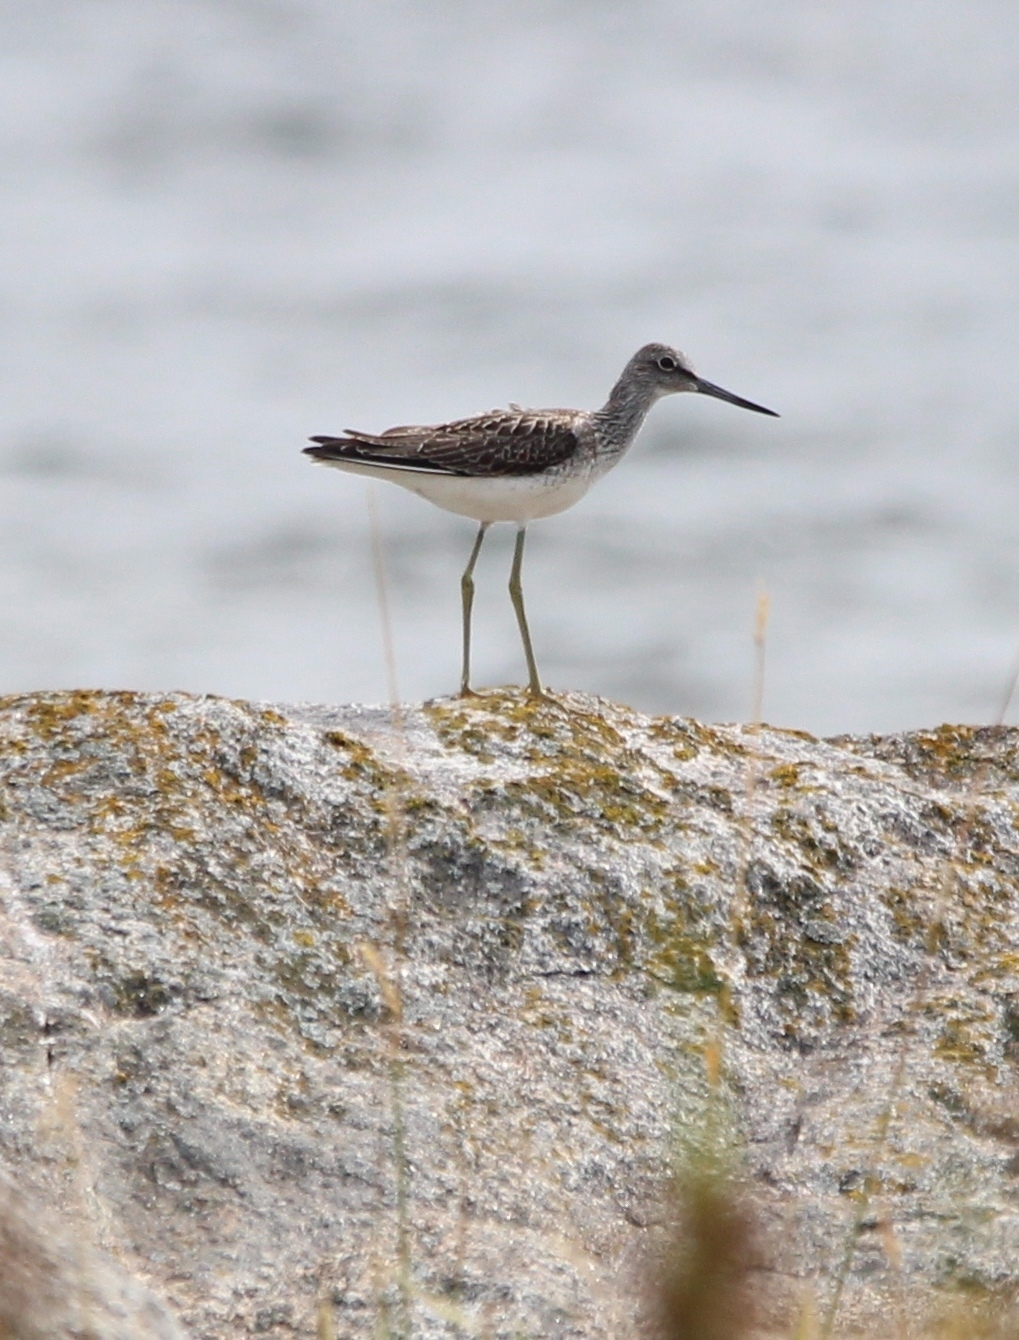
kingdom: Animalia
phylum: Chordata
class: Aves
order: Charadriiformes
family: Scolopacidae
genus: Tringa
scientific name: Tringa nebularia
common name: Common greenshank
